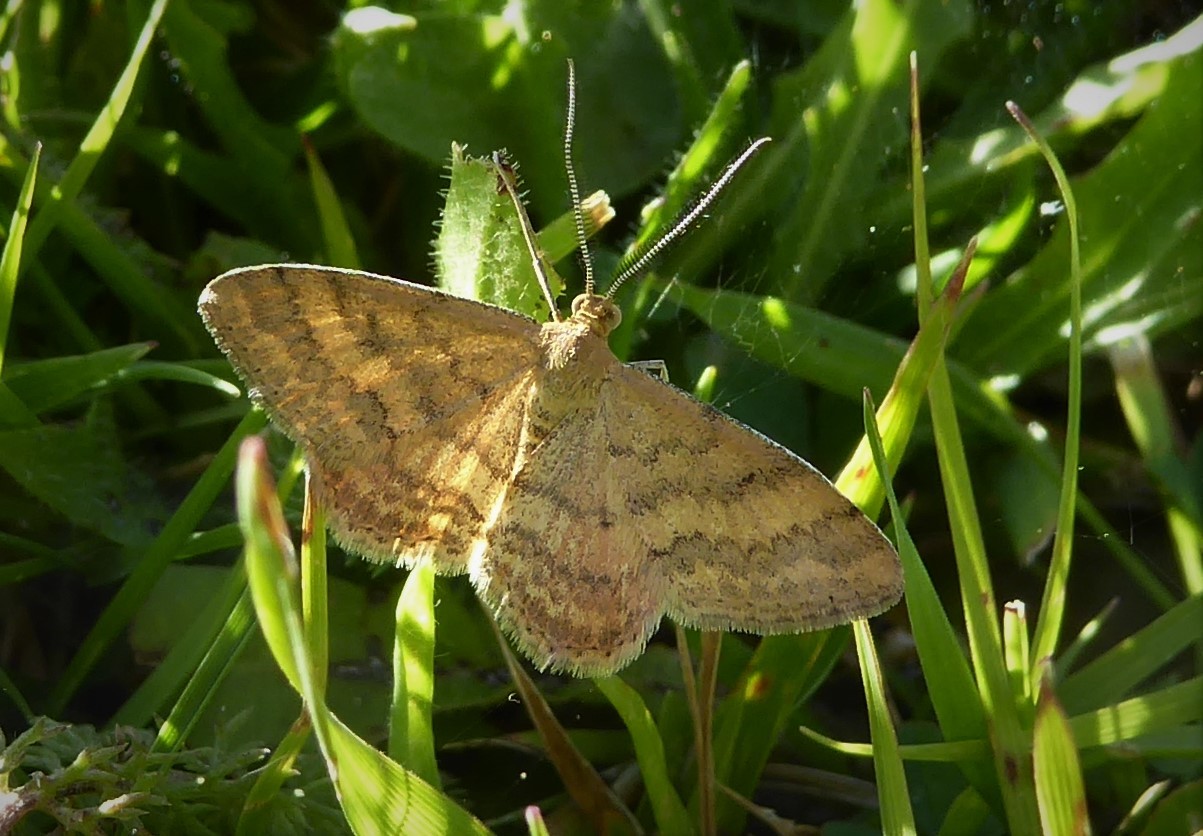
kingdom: Animalia
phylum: Arthropoda
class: Insecta
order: Lepidoptera
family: Geometridae
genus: Scopula
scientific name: Scopula rubraria
